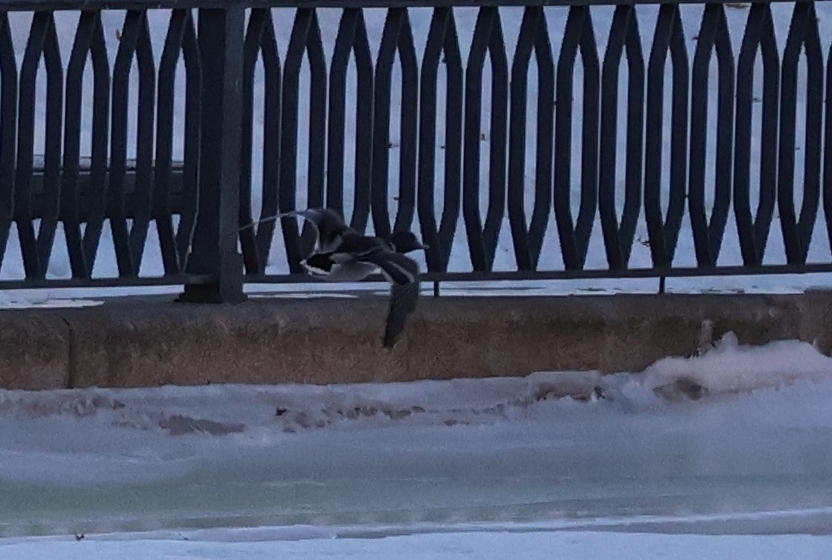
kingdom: Animalia
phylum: Chordata
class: Aves
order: Anseriformes
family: Anatidae
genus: Anas
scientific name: Anas platyrhynchos
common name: Mallard
